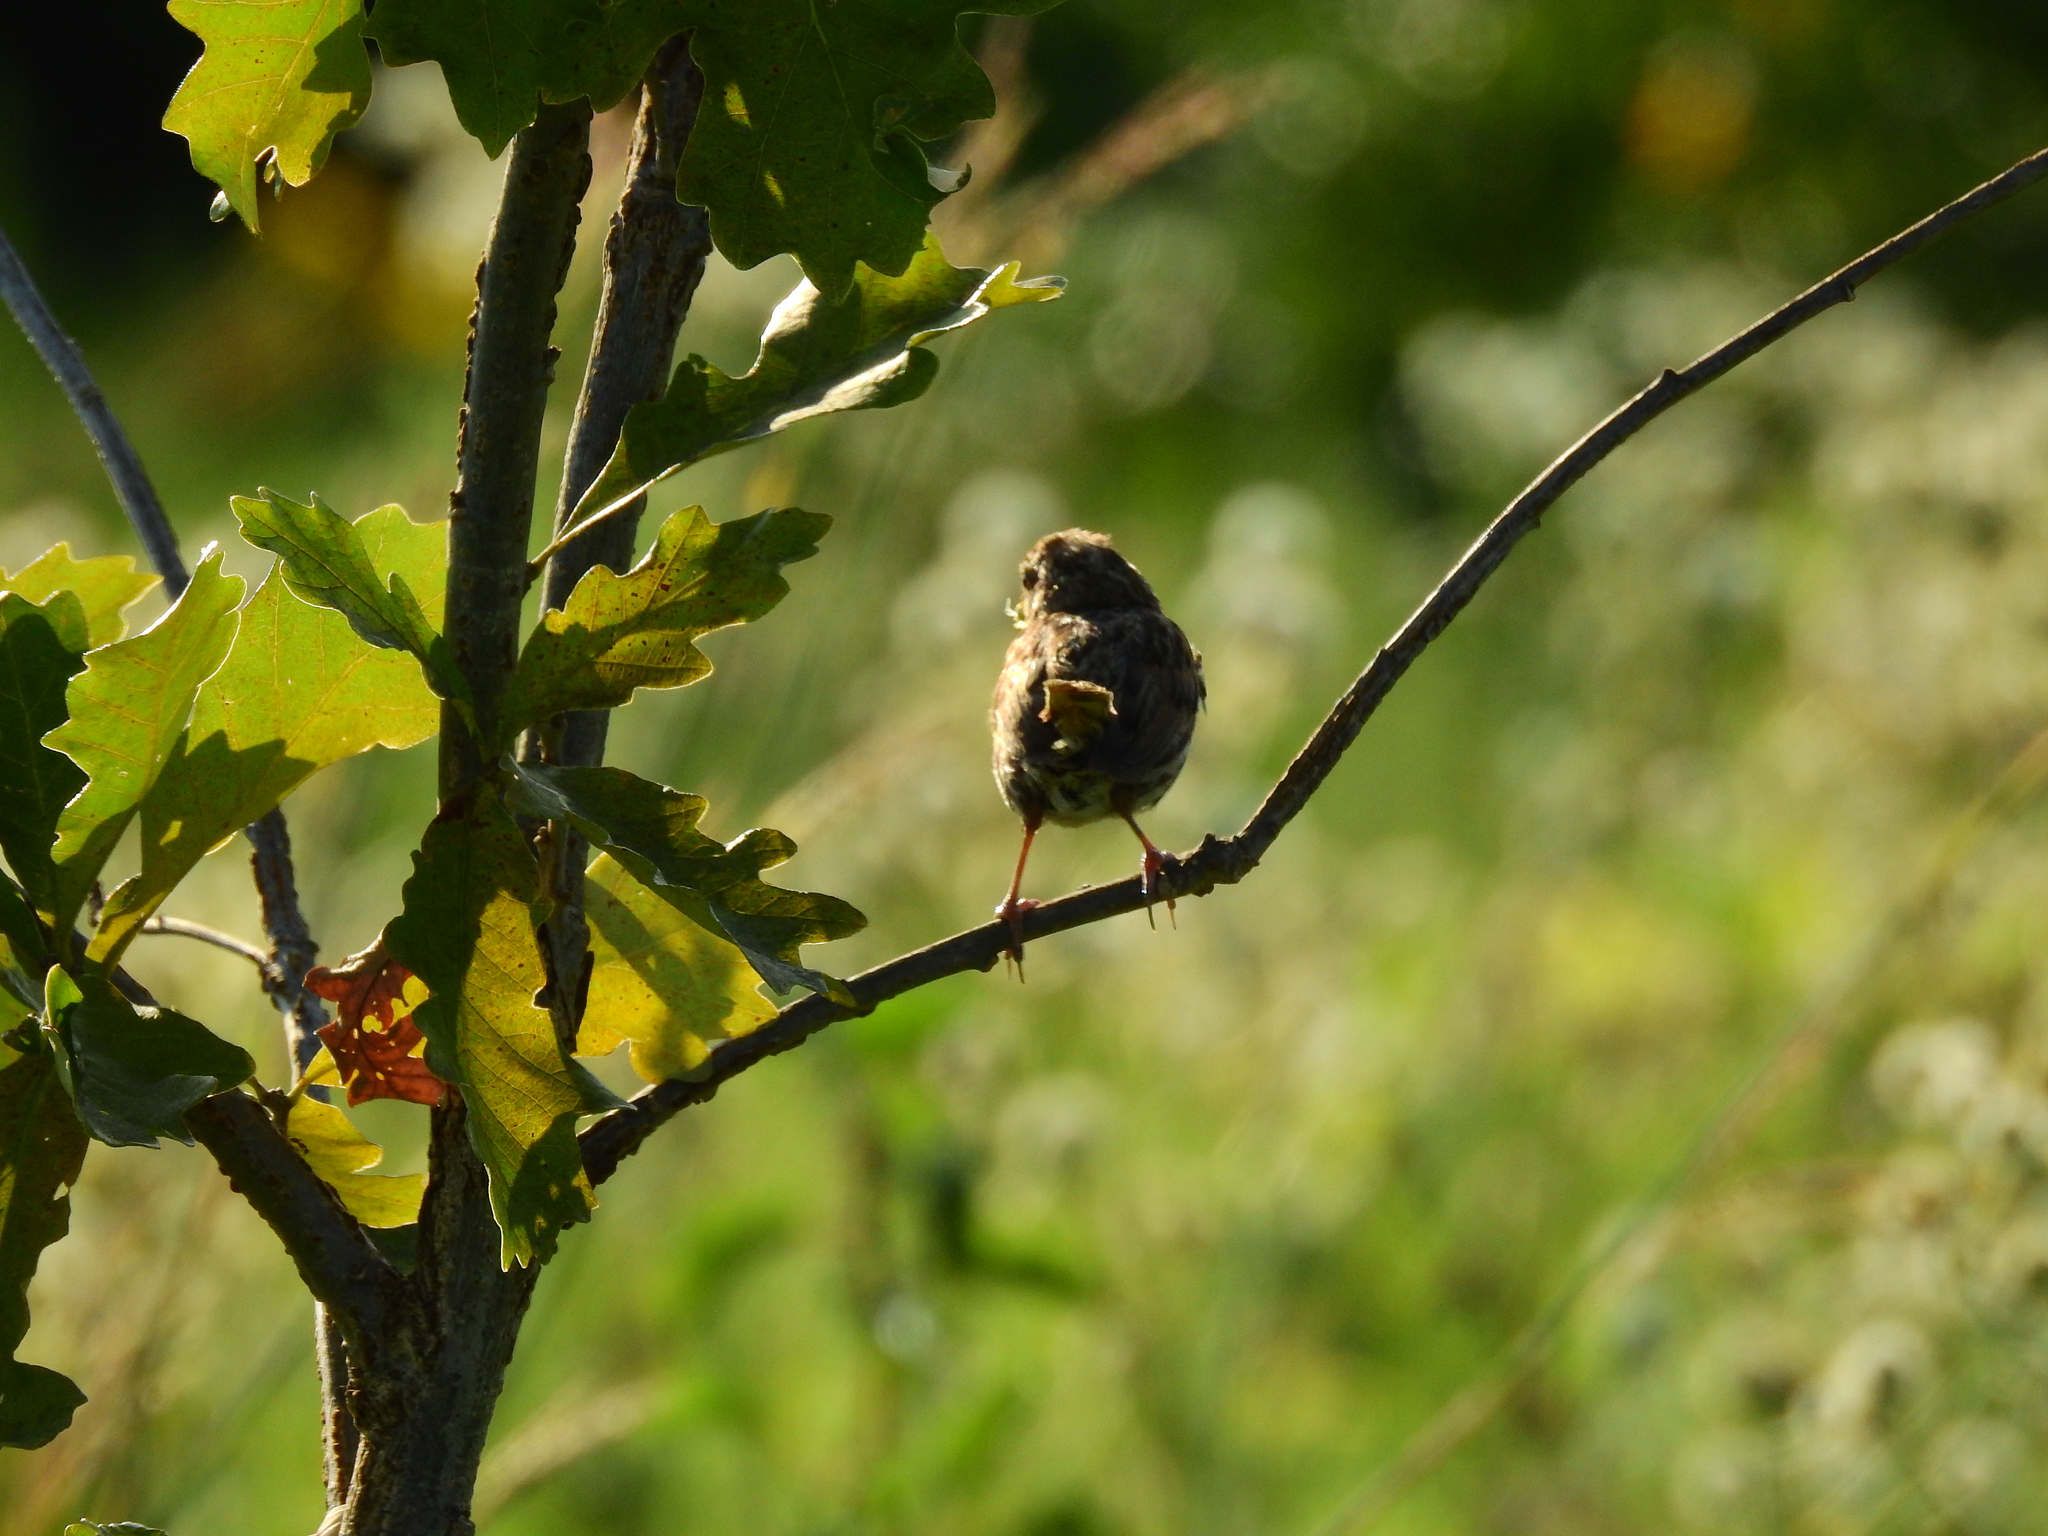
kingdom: Animalia
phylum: Chordata
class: Aves
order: Passeriformes
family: Passerellidae
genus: Melospiza
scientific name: Melospiza melodia
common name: Song sparrow
